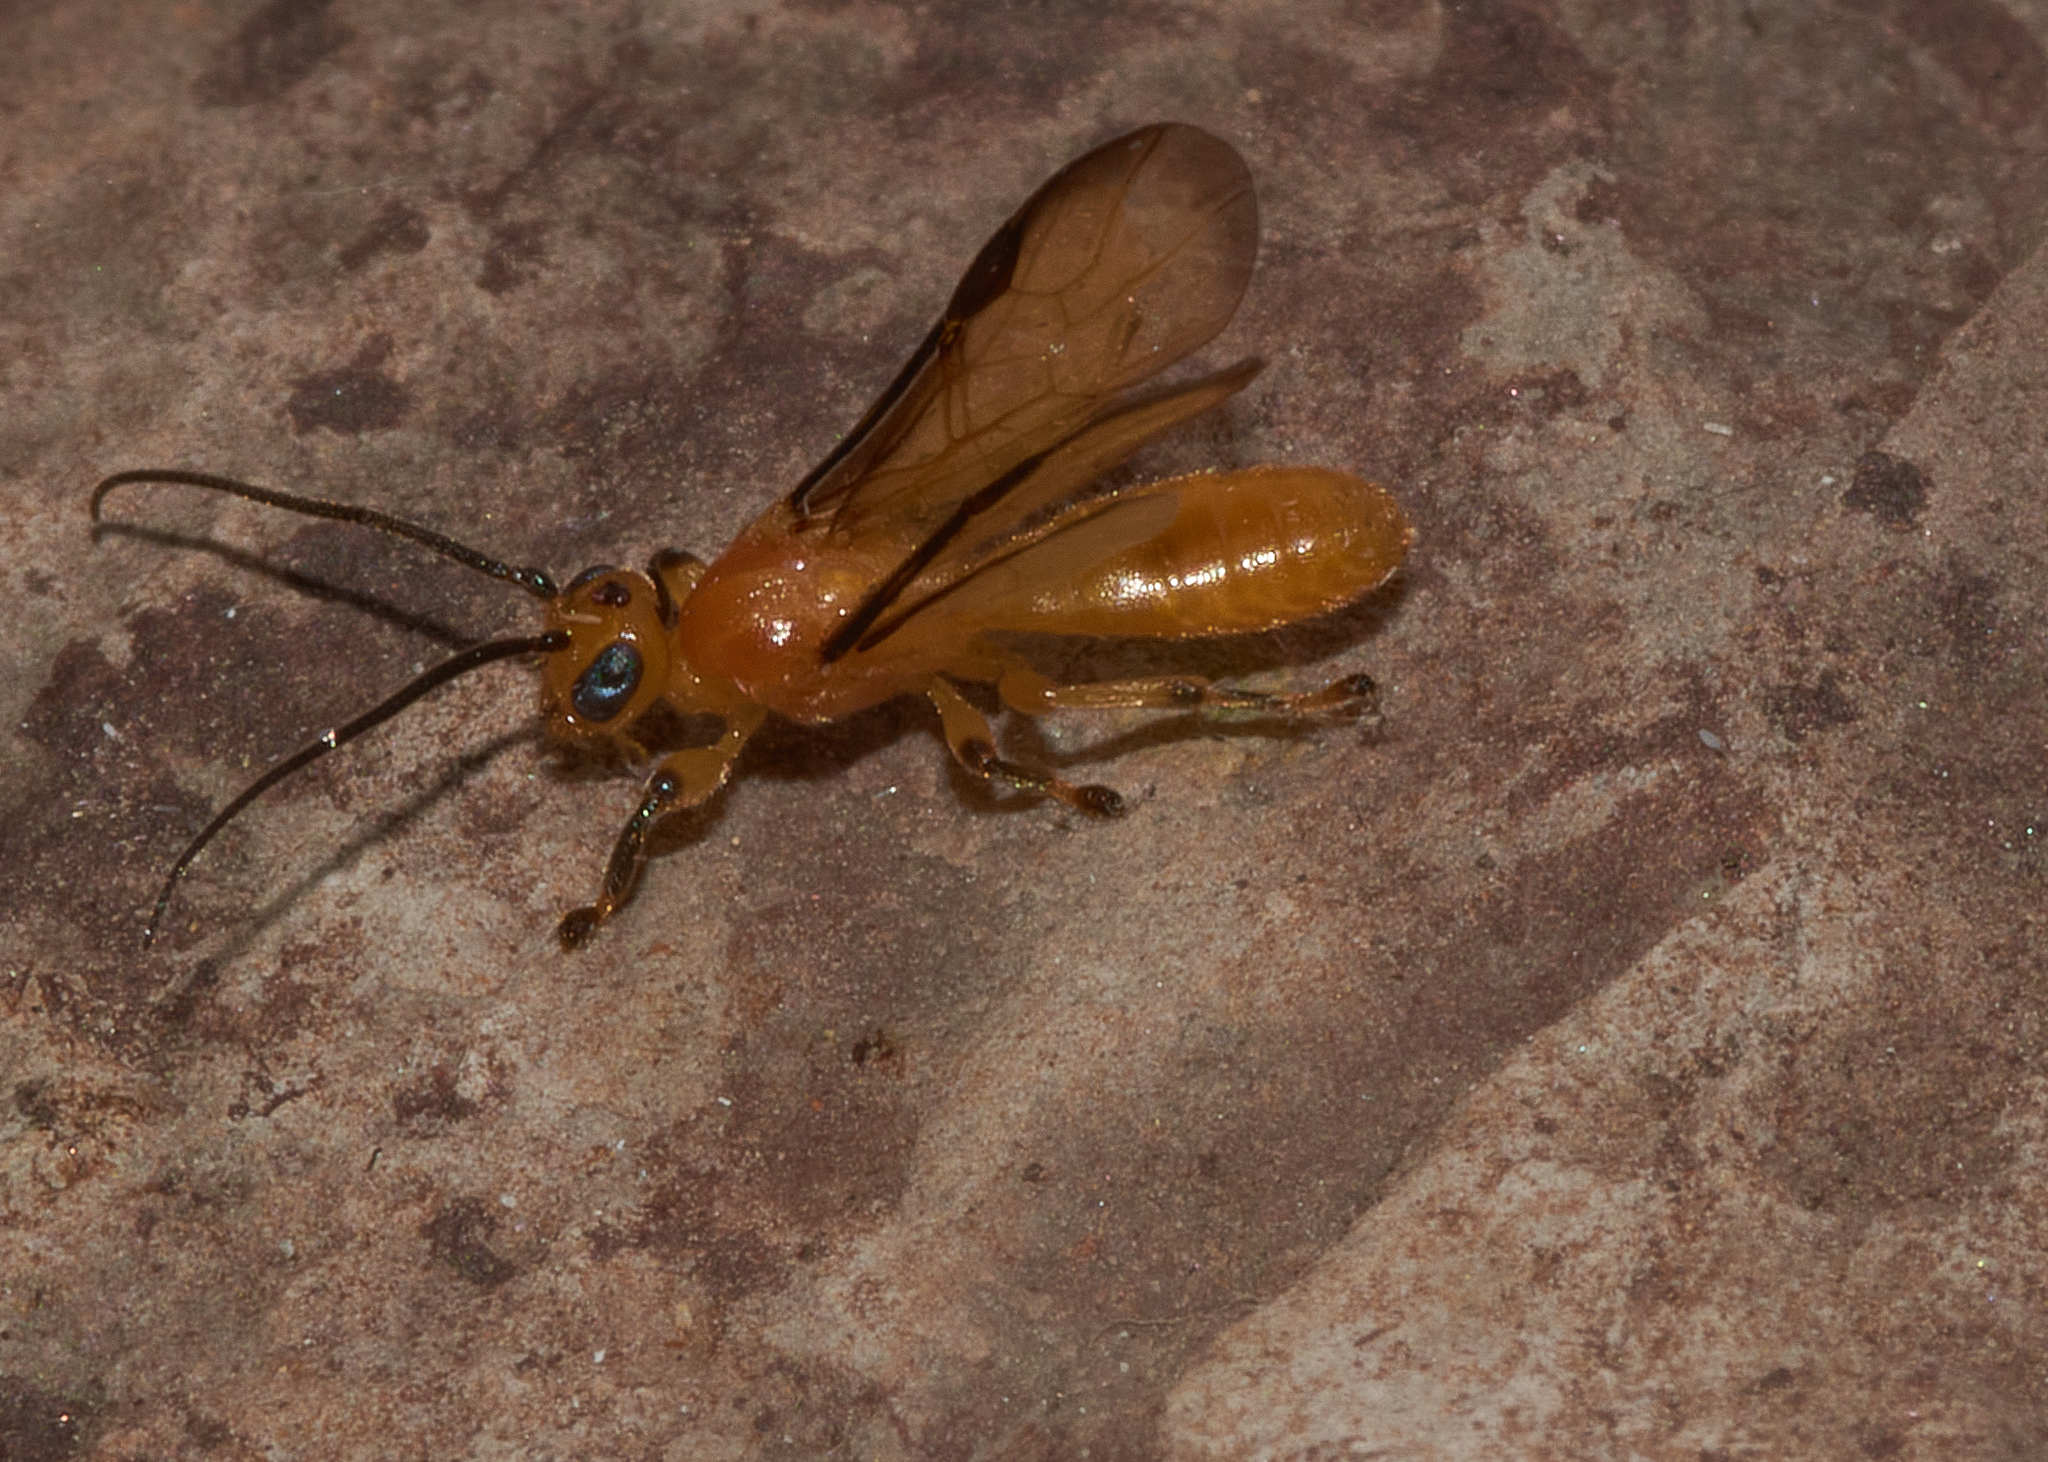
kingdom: Animalia
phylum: Arthropoda
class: Insecta
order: Hymenoptera
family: Braconidae
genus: Yelicones
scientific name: Yelicones nigromarginatus
